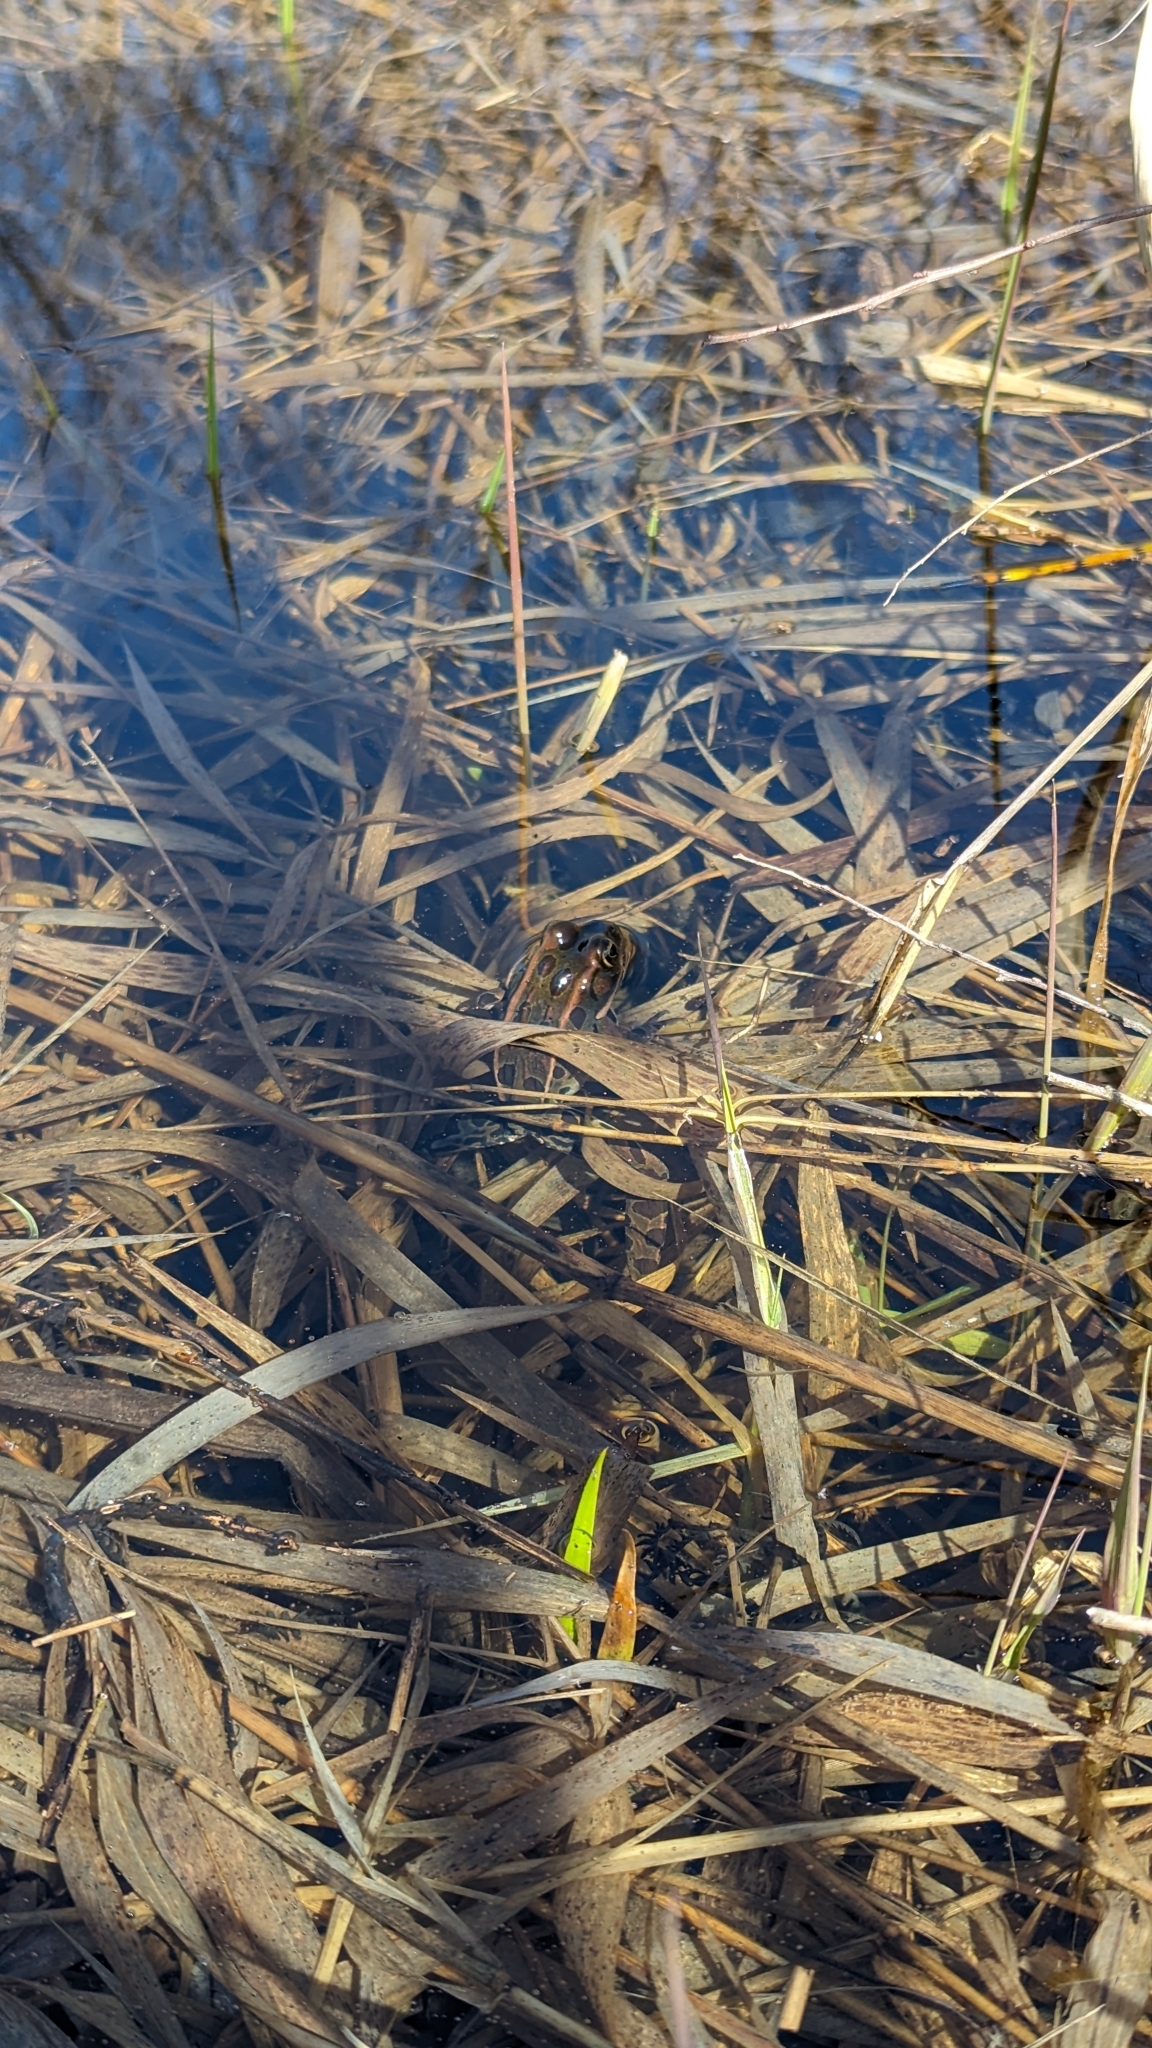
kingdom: Animalia
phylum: Chordata
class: Amphibia
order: Anura
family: Ranidae
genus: Lithobates
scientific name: Lithobates pipiens
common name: Northern leopard frog
